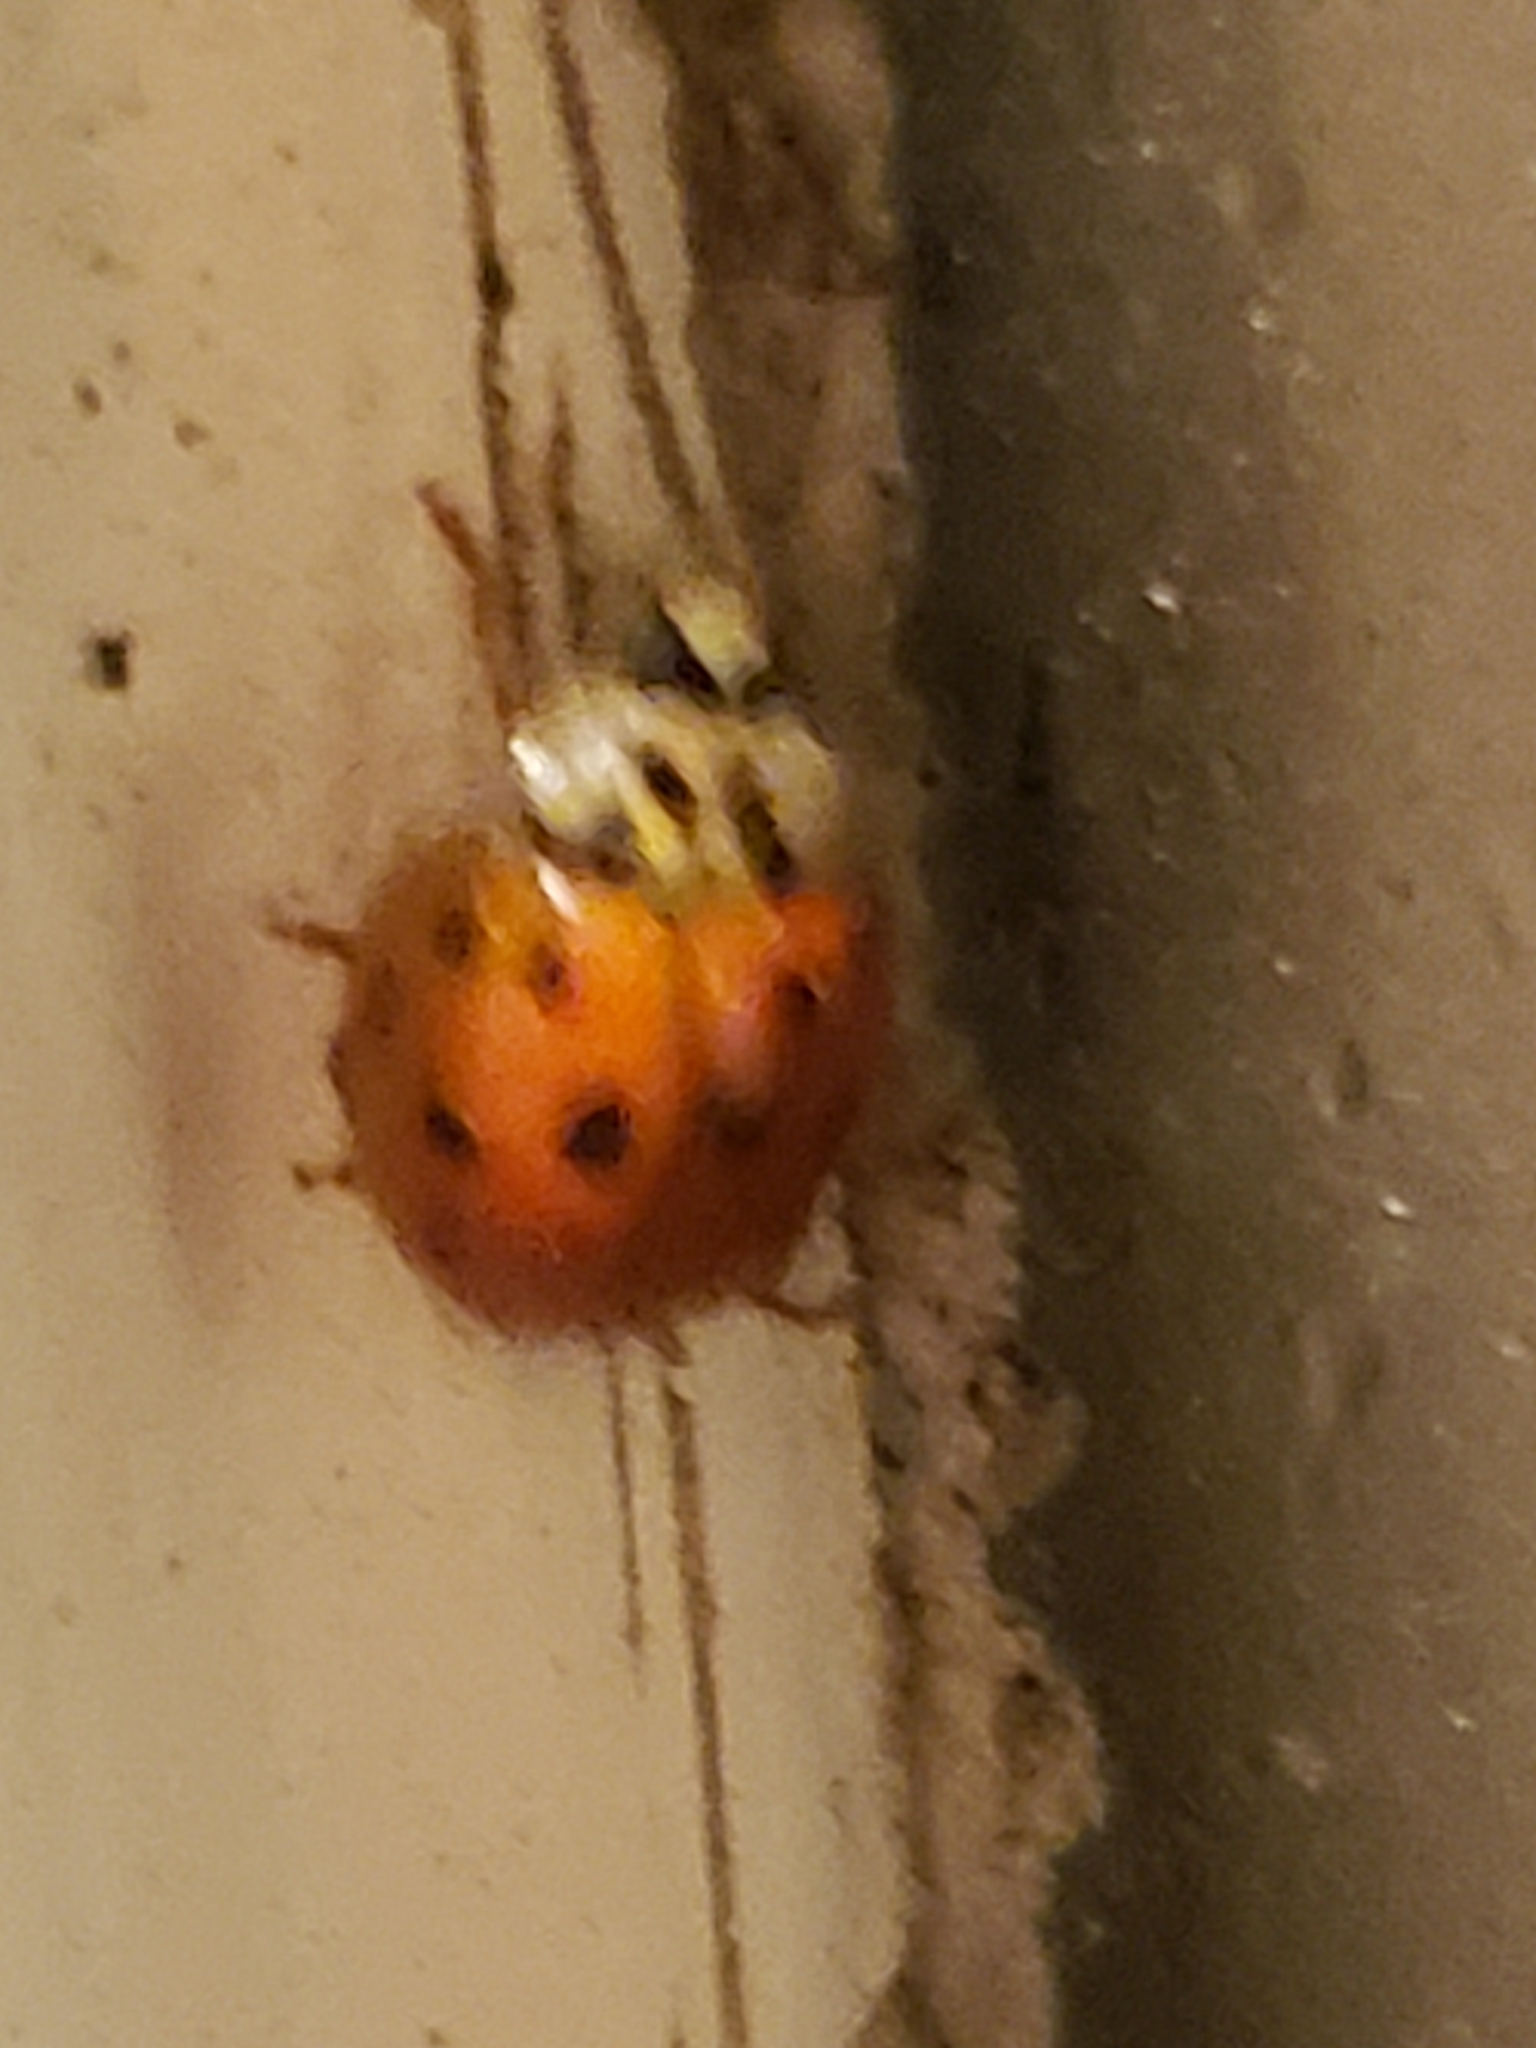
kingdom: Animalia
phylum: Arthropoda
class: Insecta
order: Coleoptera
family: Coccinellidae
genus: Harmonia
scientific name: Harmonia axyridis
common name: Harlequin ladybird
